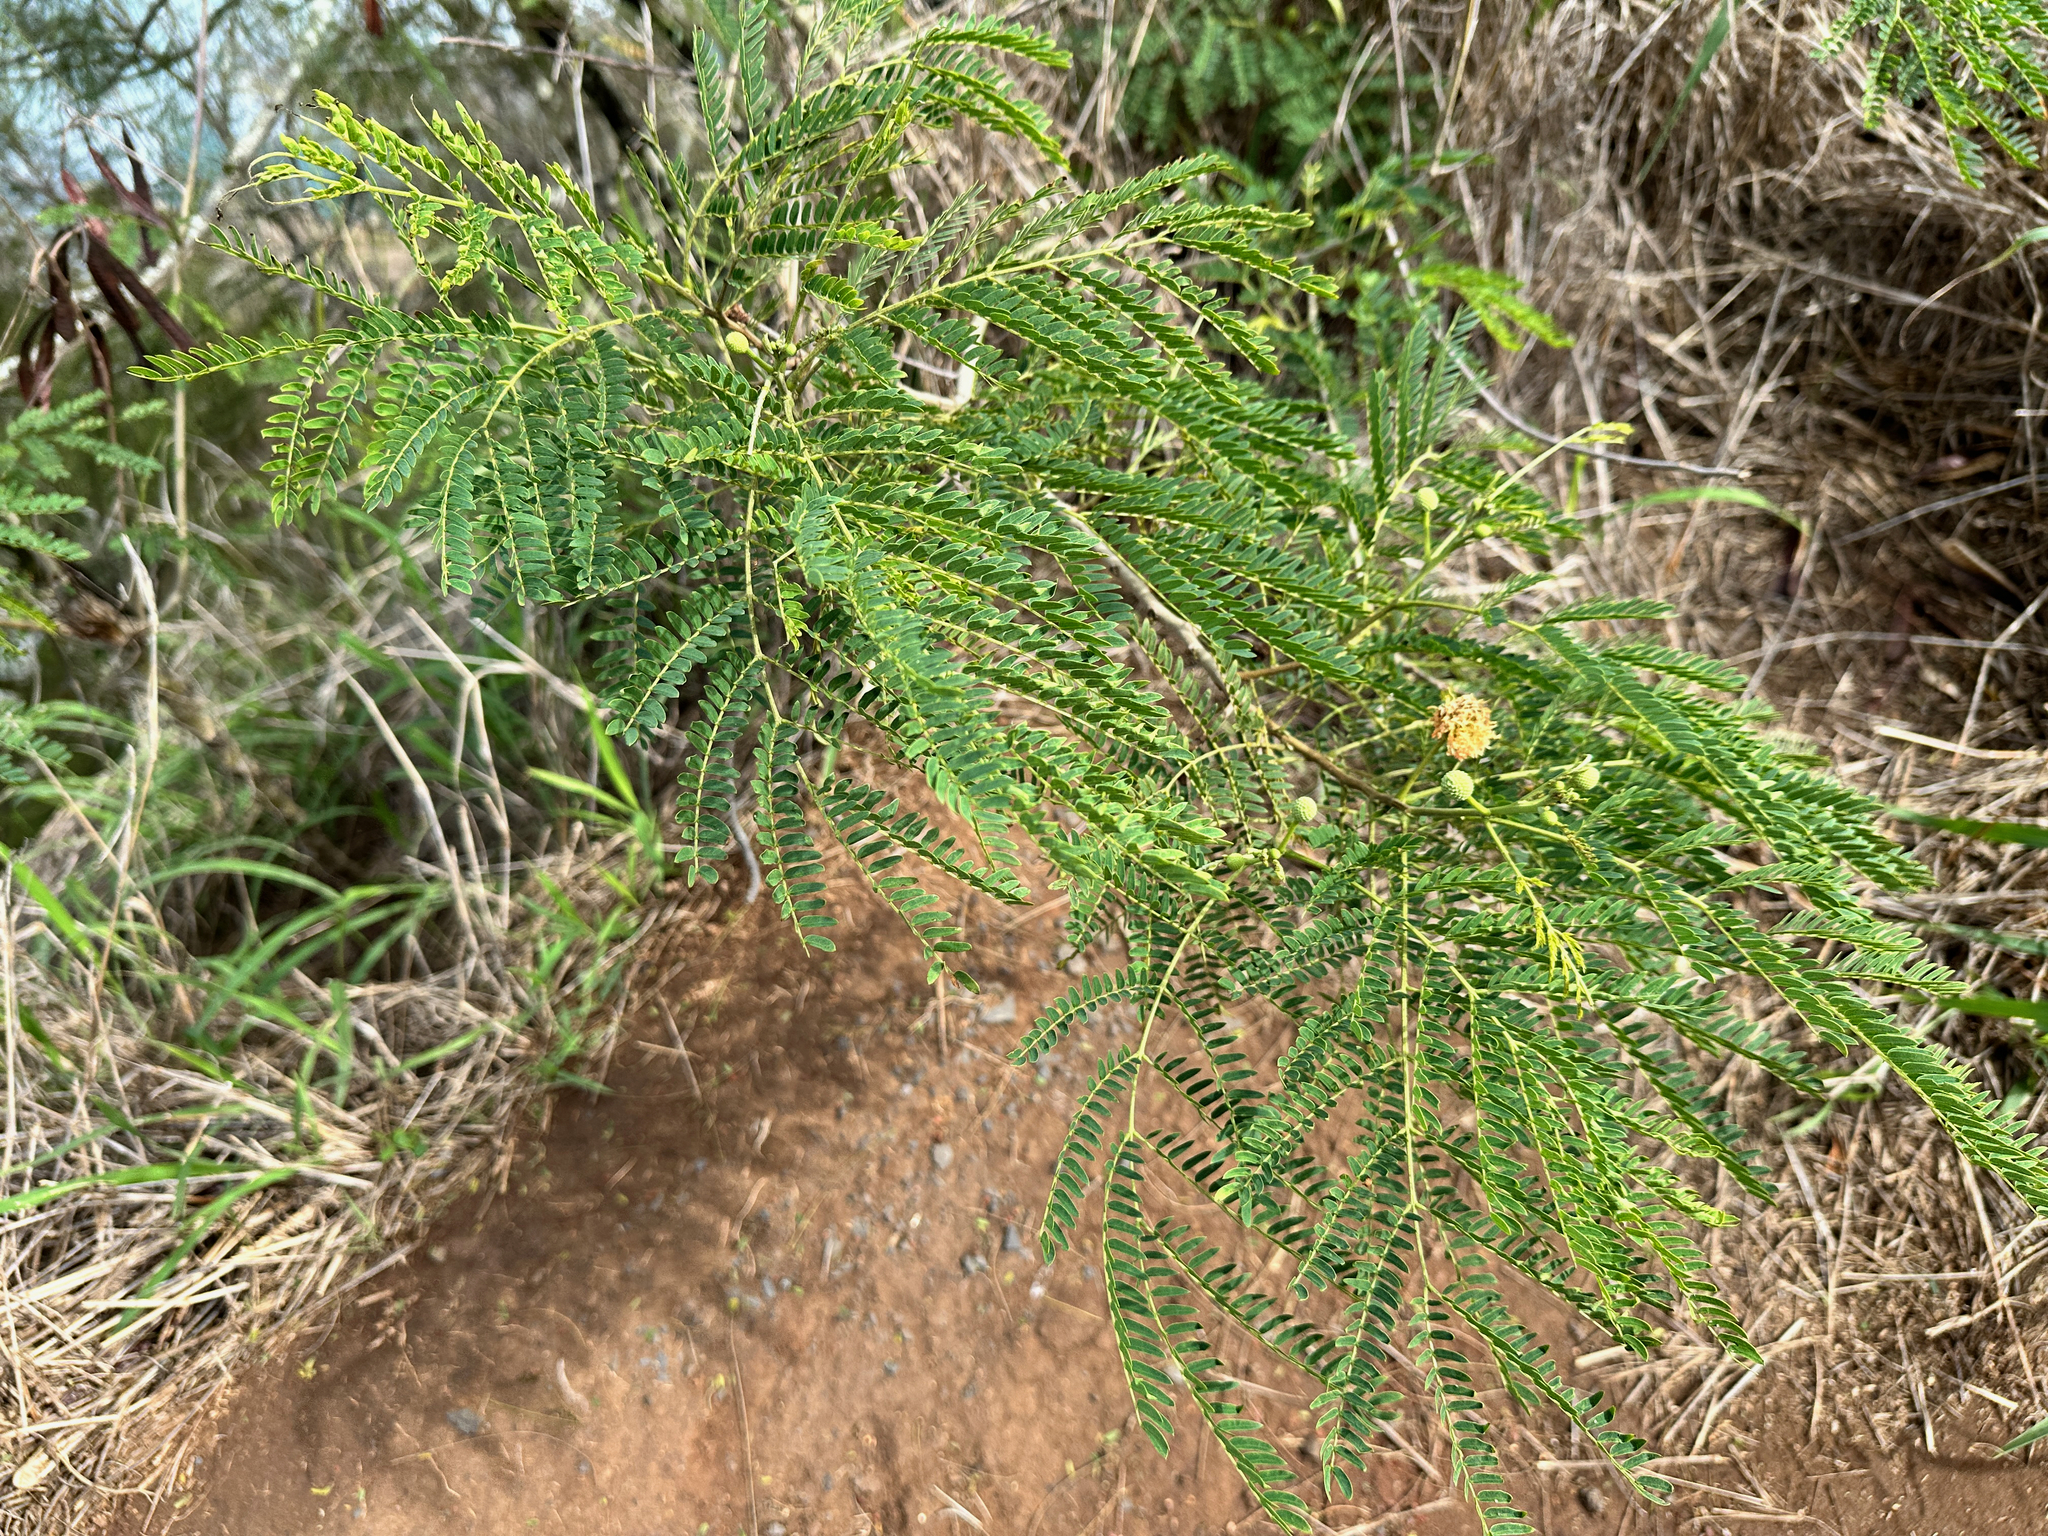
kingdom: Plantae
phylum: Tracheophyta
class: Magnoliopsida
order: Fabales
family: Fabaceae
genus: Leucaena
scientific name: Leucaena leucocephala
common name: White leadtree
